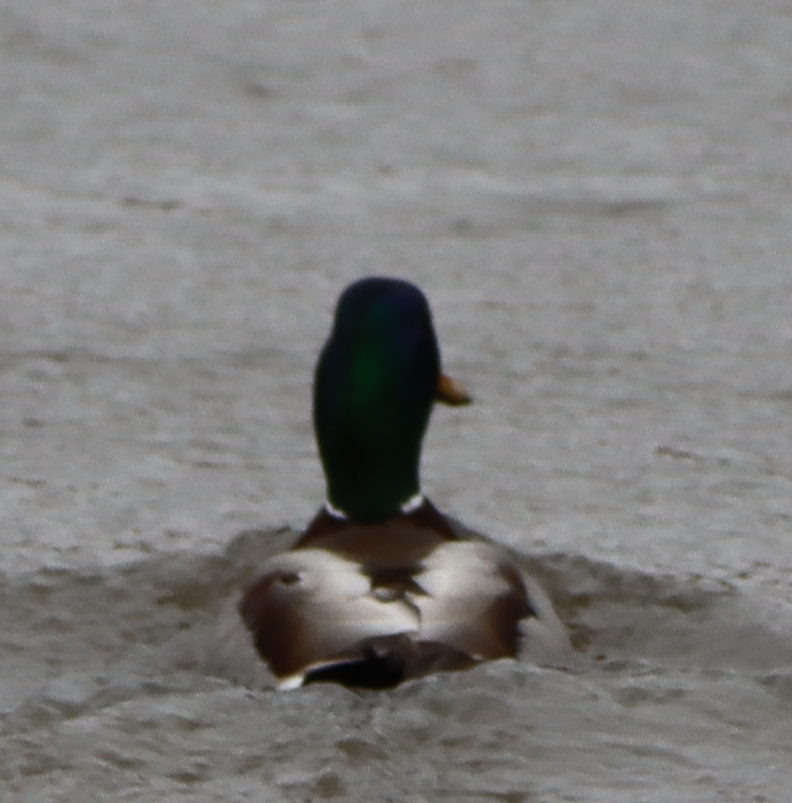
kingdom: Animalia
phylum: Chordata
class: Aves
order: Anseriformes
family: Anatidae
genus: Anas
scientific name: Anas platyrhynchos
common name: Mallard
